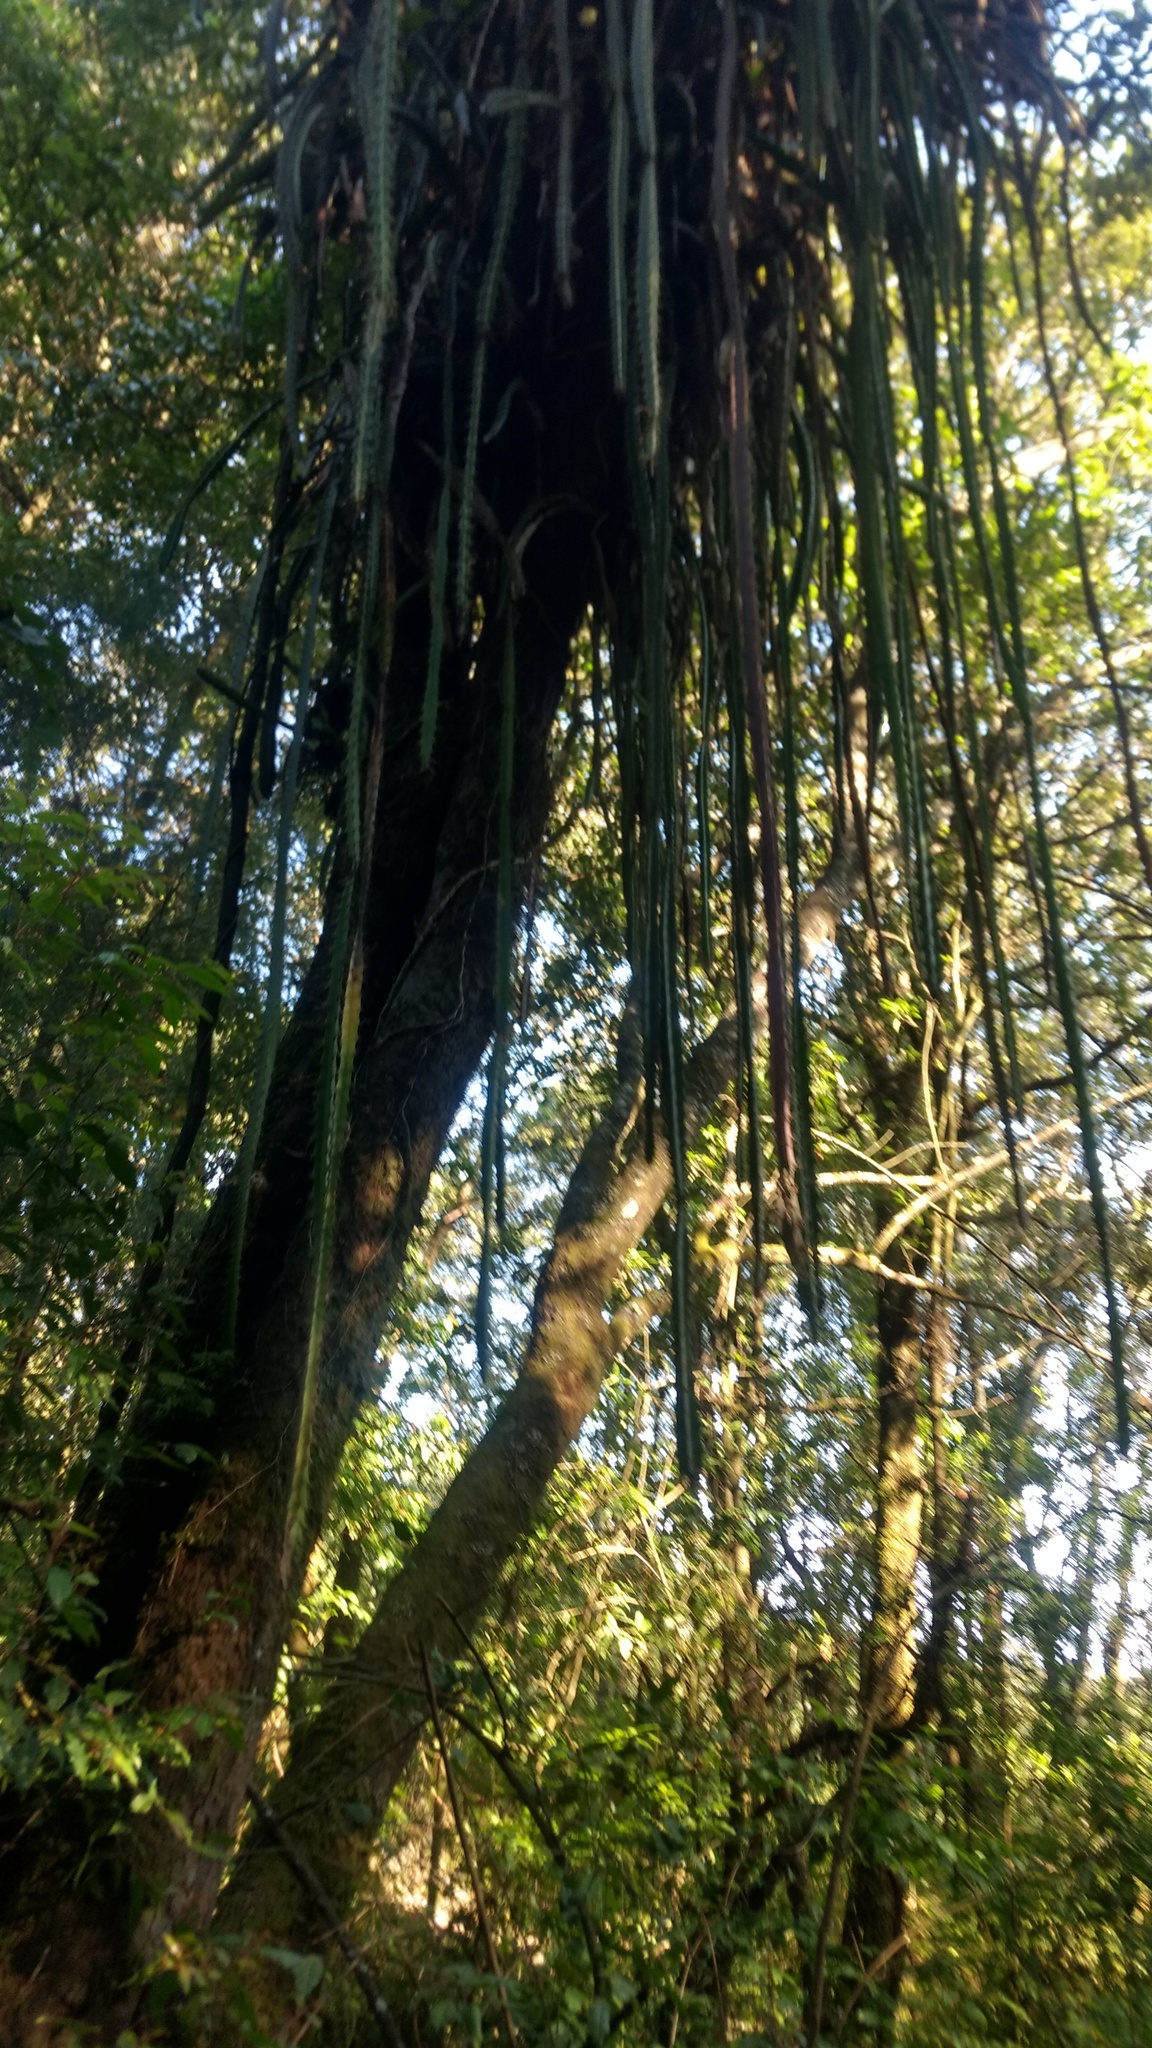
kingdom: Plantae
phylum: Tracheophyta
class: Magnoliopsida
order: Caryophyllales
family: Cactaceae
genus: Disocactus
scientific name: Disocactus speciosus
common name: Sun cereus
